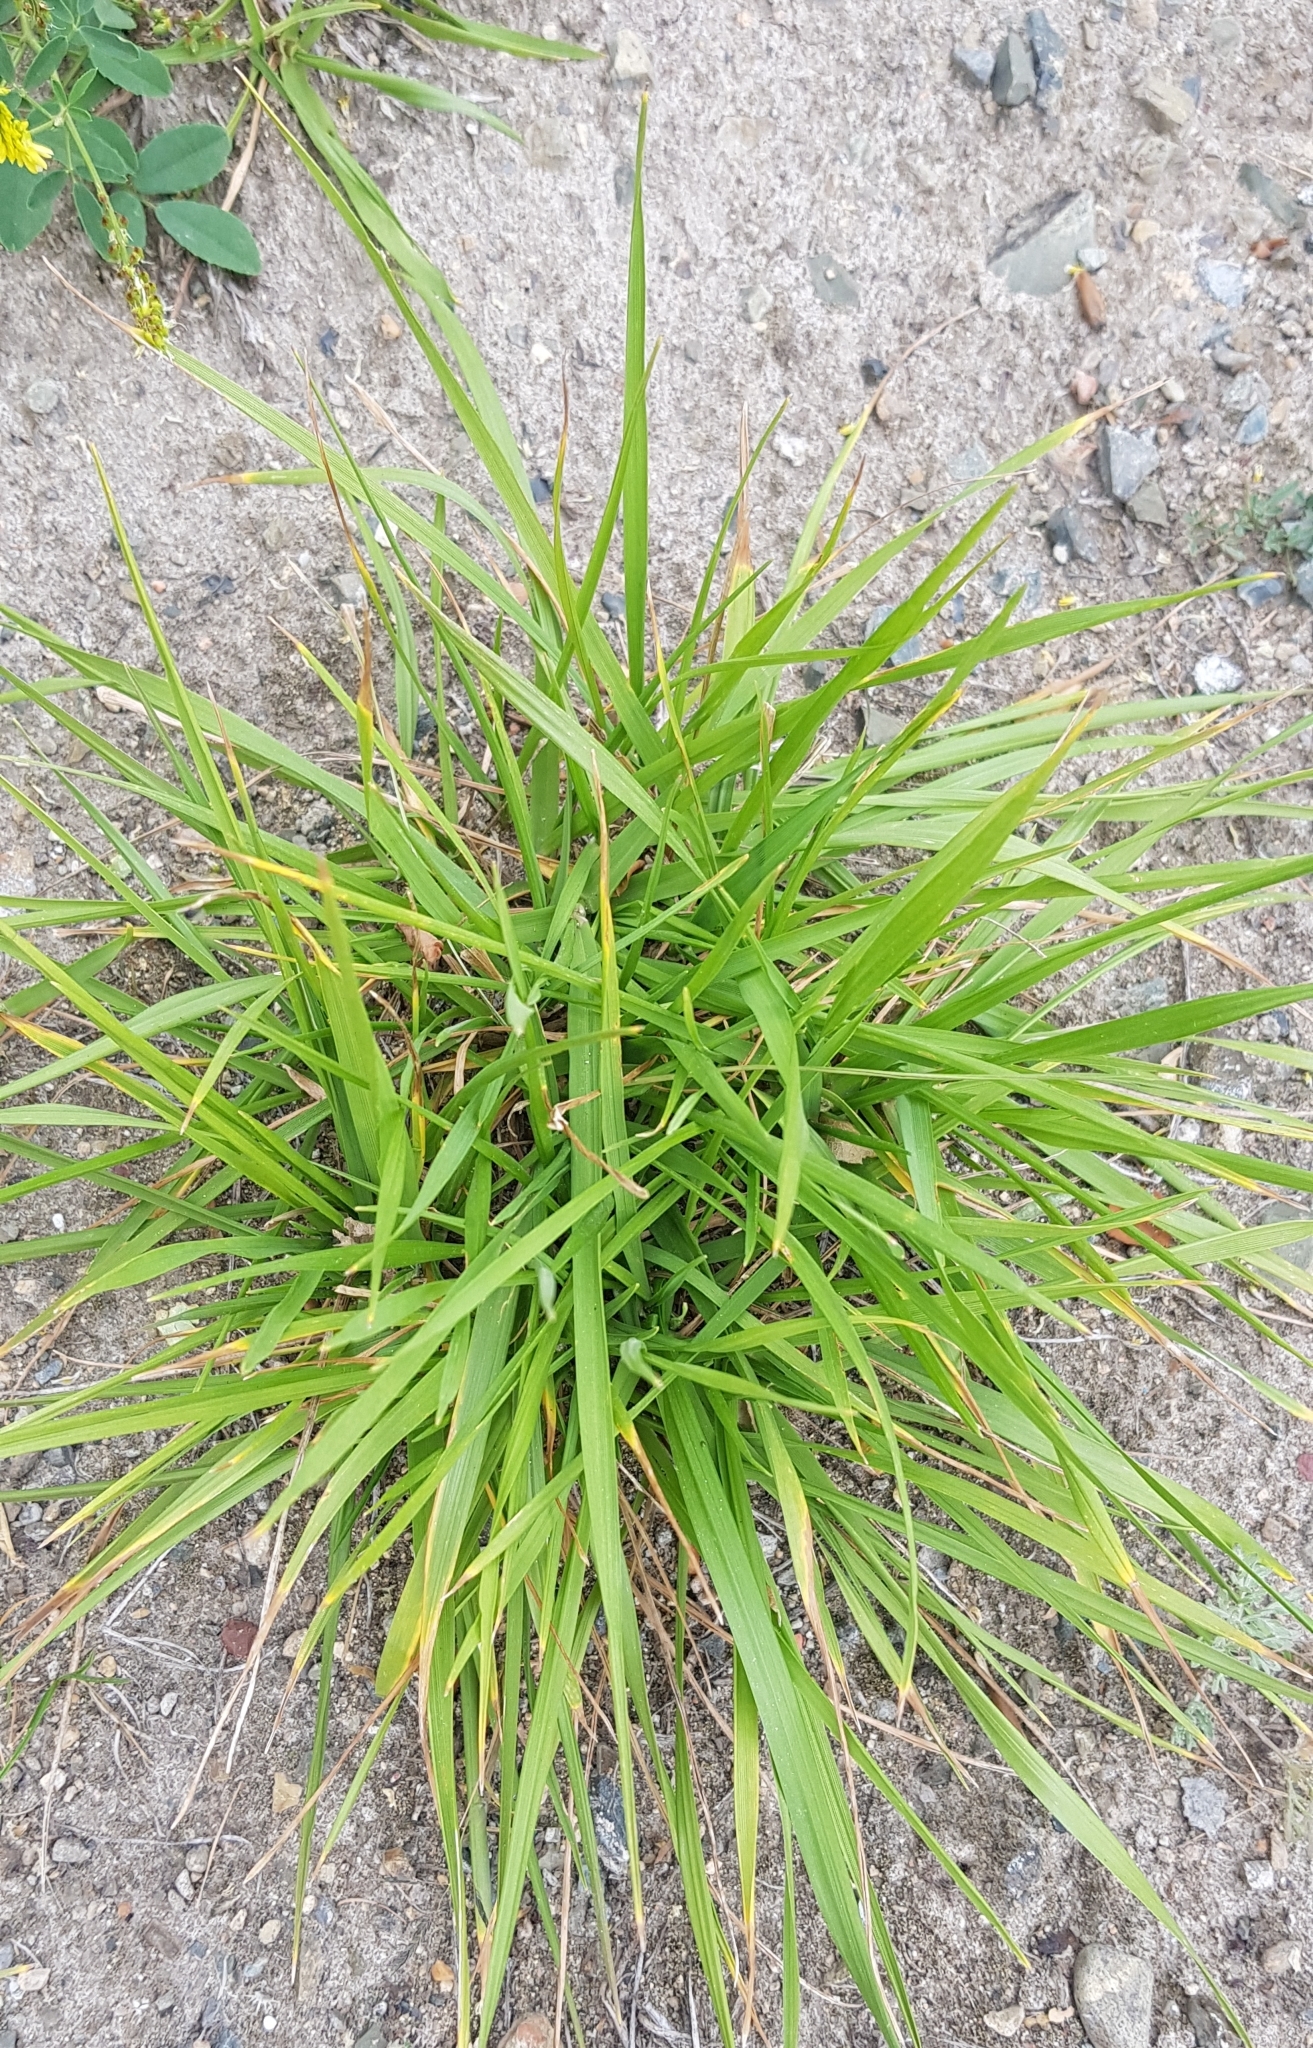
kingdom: Plantae
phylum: Tracheophyta
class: Liliopsida
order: Poales
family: Poaceae
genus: Setaria
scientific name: Setaria viridis
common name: Green bristlegrass
